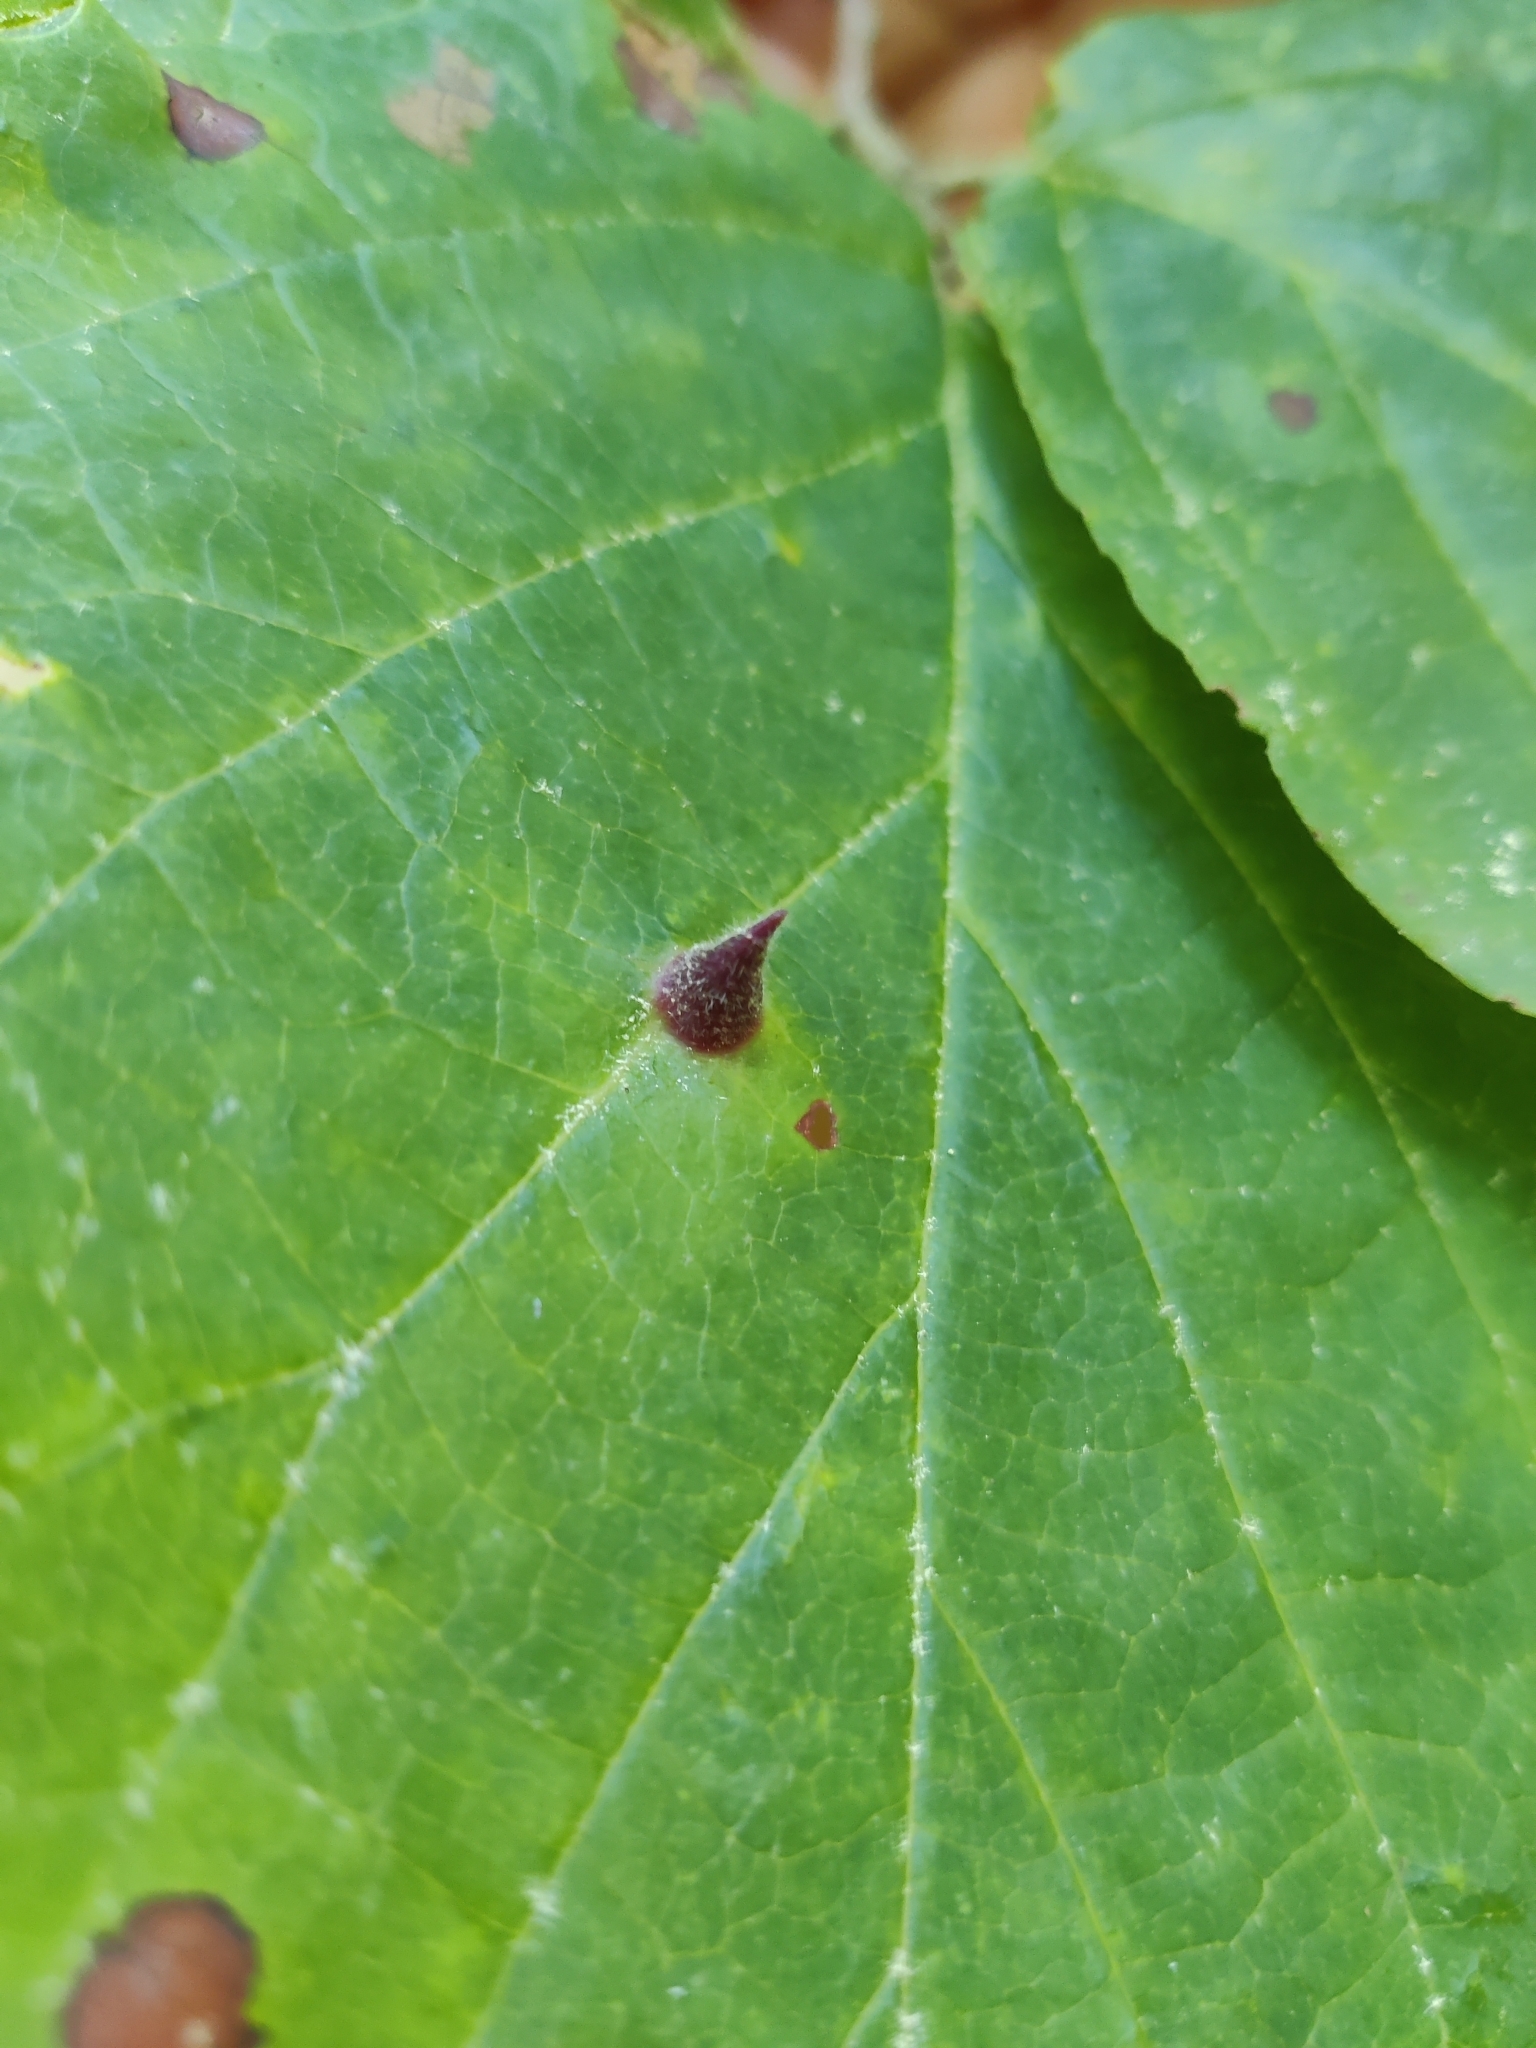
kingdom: Animalia
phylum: Arthropoda
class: Insecta
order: Hemiptera
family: Aphididae
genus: Hormaphis
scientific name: Hormaphis hamamelidis
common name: Witch-hazel cone gall aphid
